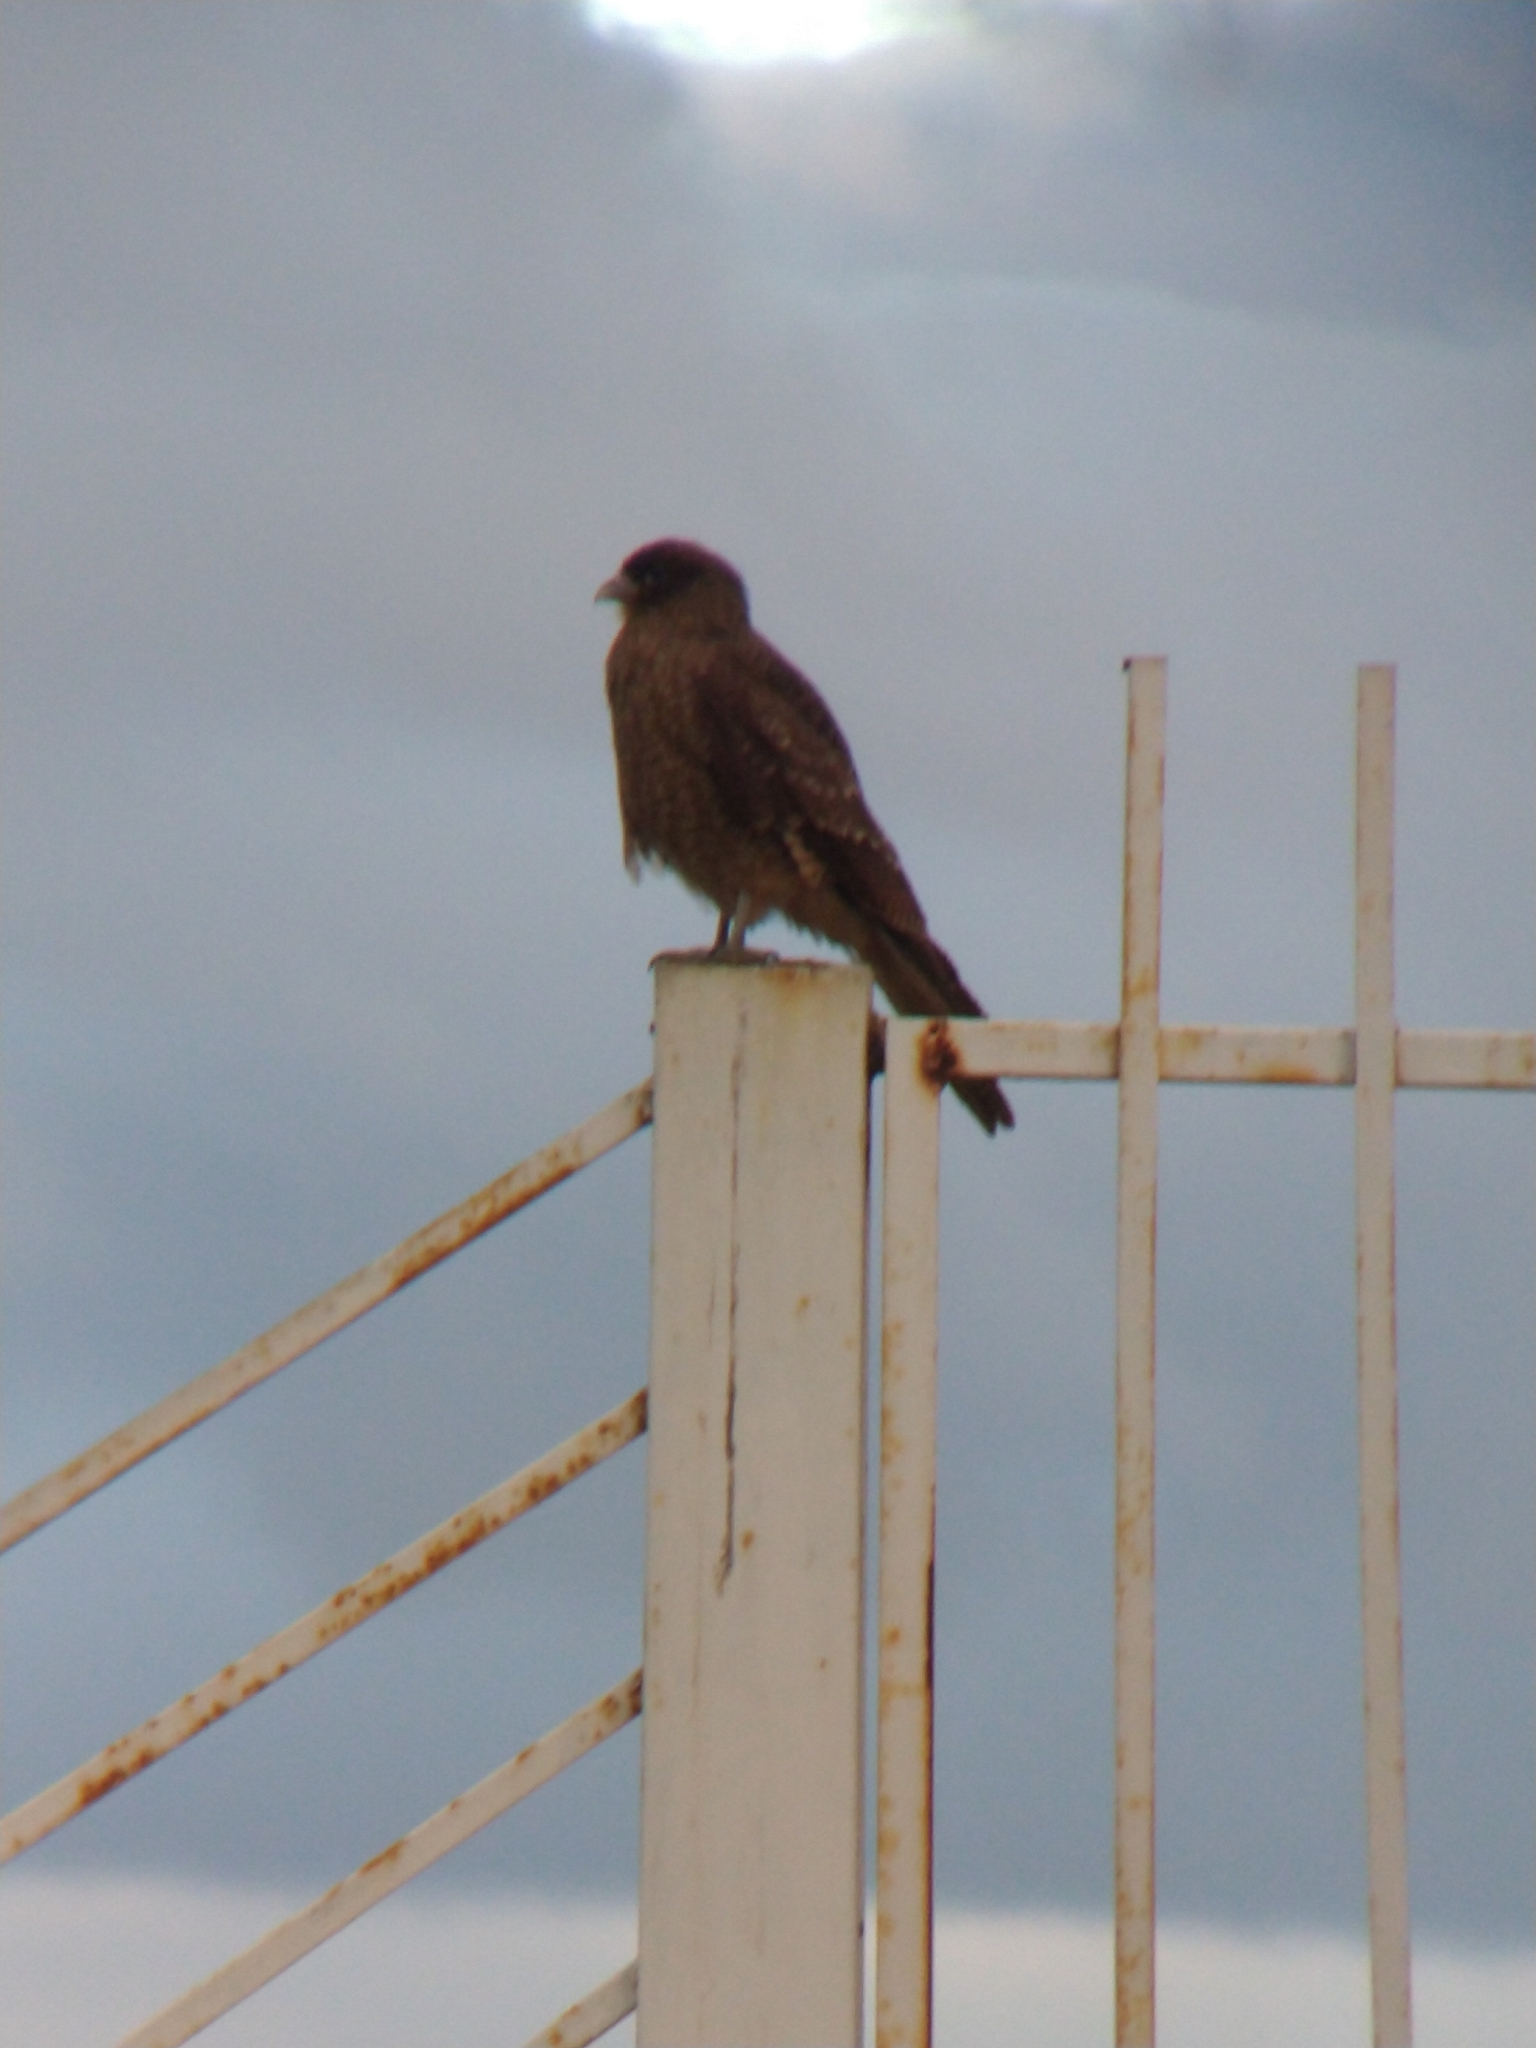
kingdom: Animalia
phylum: Chordata
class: Aves
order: Falconiformes
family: Falconidae
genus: Daptrius
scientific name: Daptrius
